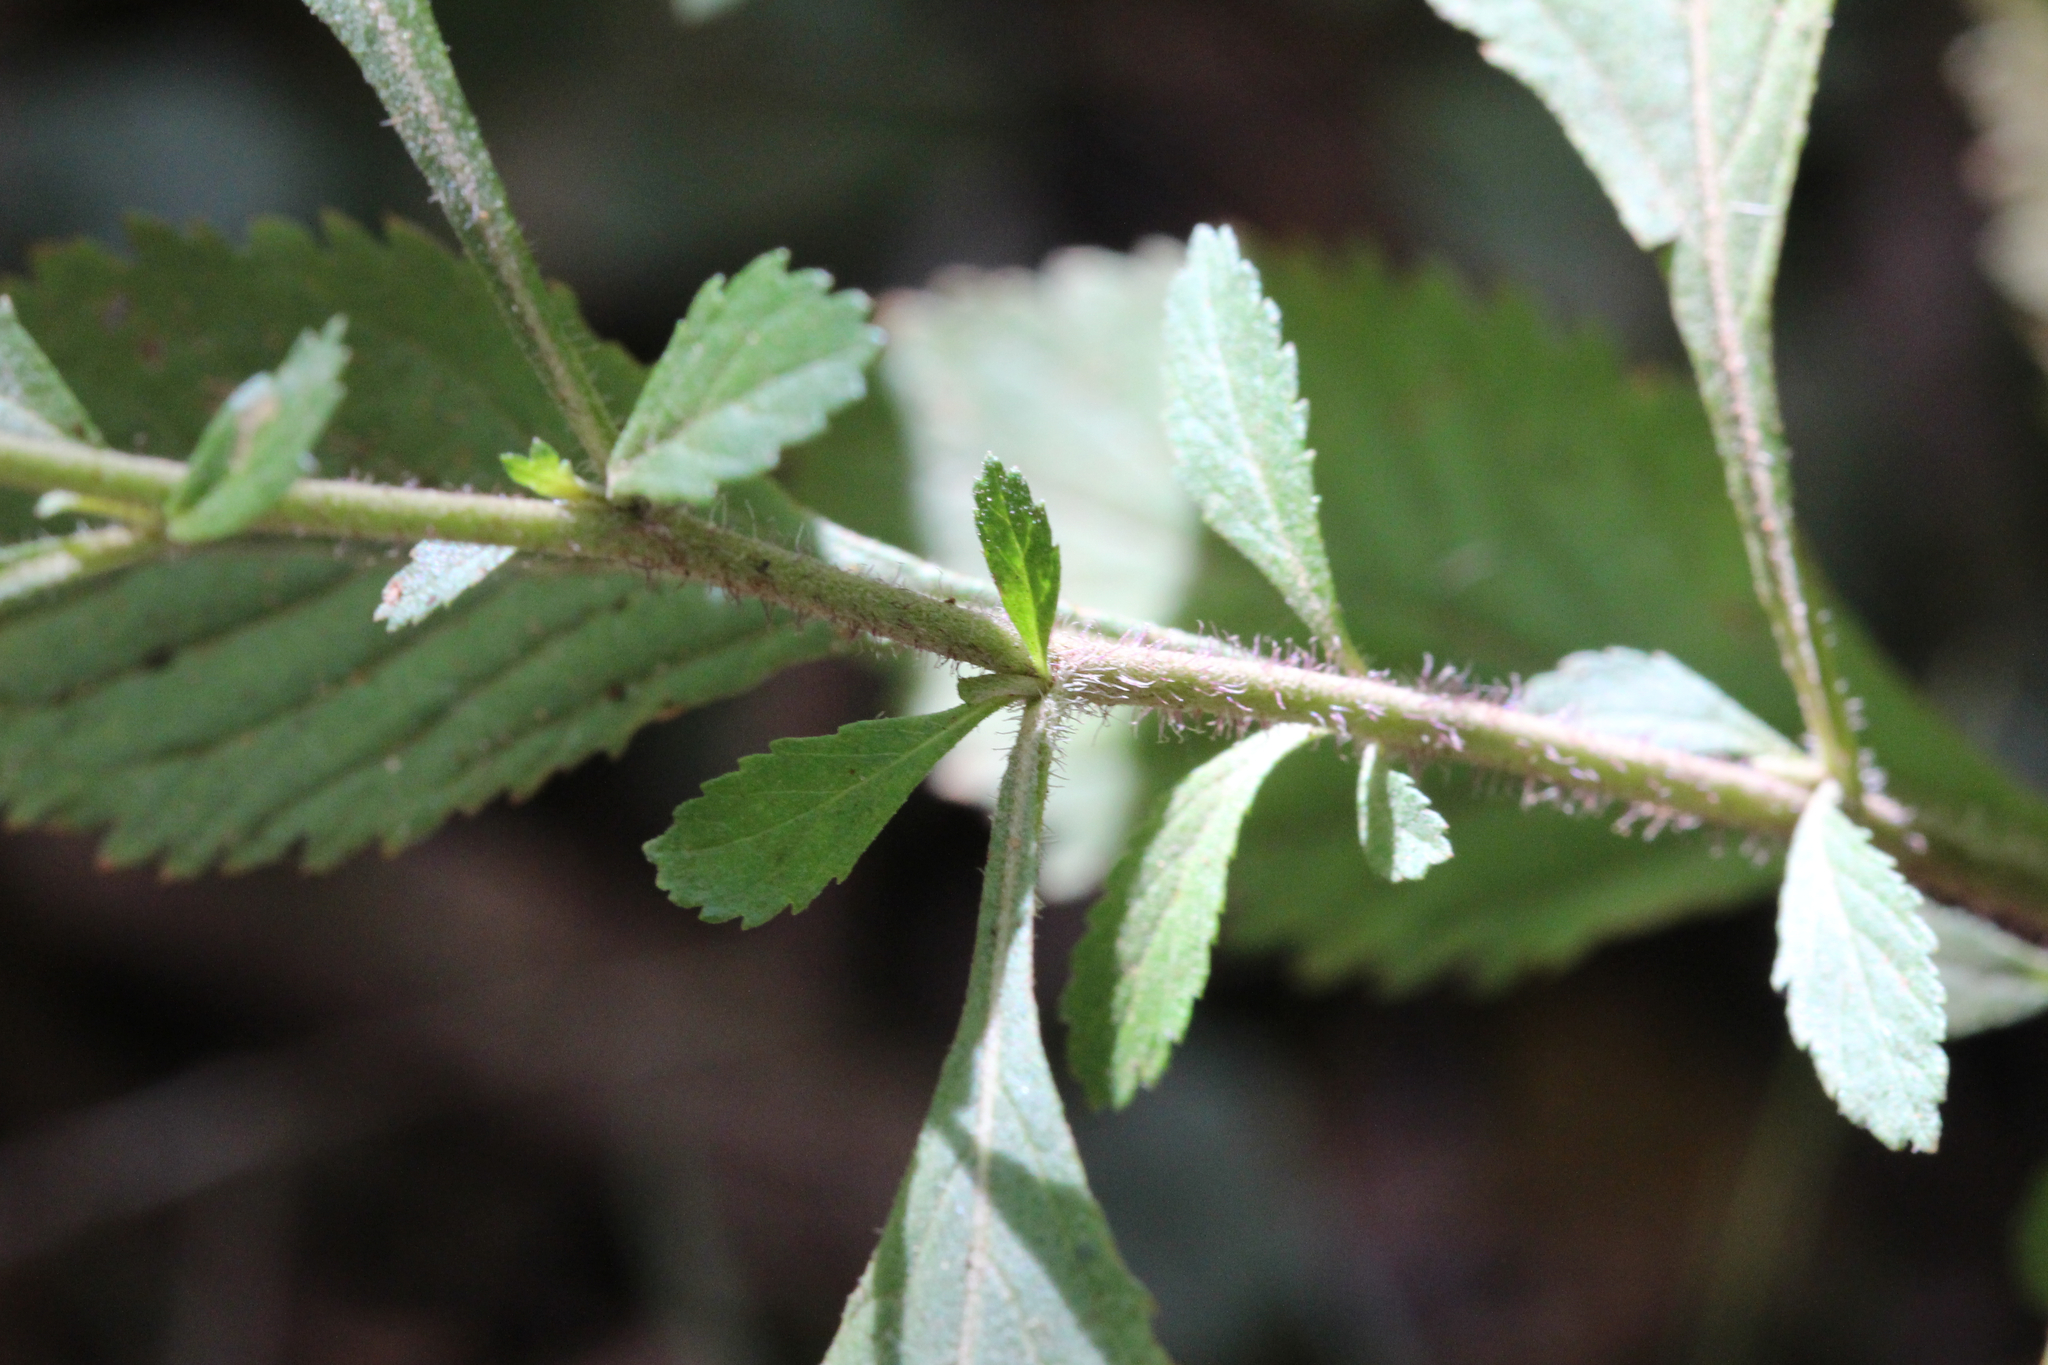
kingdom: Plantae
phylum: Tracheophyta
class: Magnoliopsida
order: Asterales
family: Asteraceae
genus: Centratherum
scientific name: Centratherum punctatum
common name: Larkdaisy
